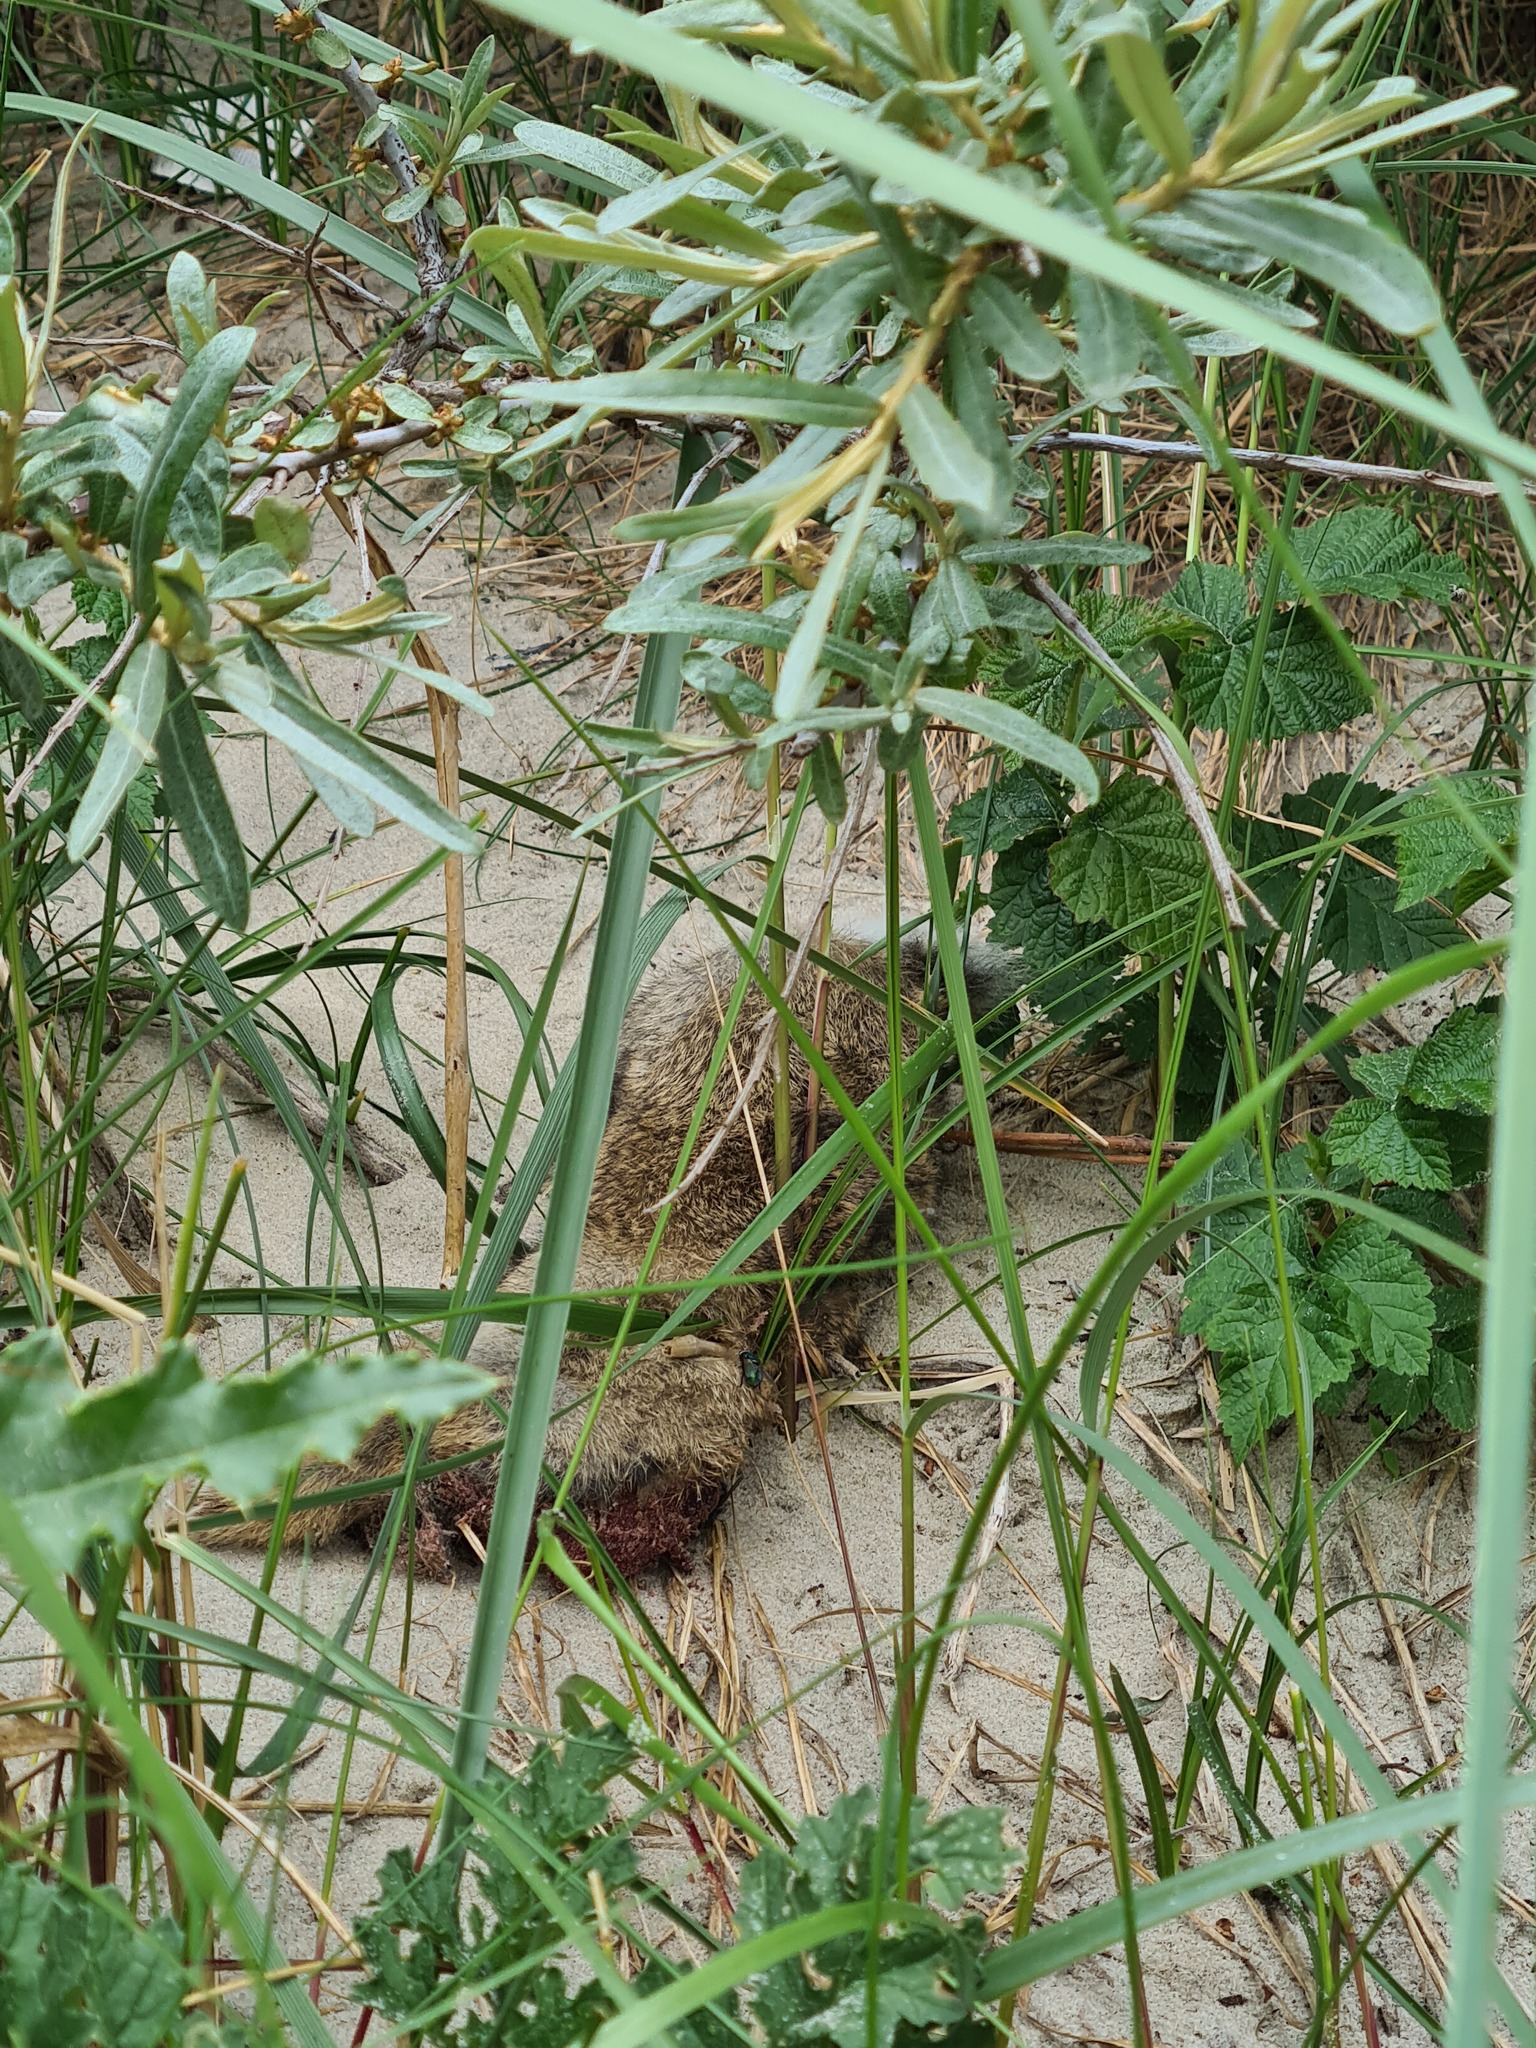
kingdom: Animalia
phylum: Chordata
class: Mammalia
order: Lagomorpha
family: Leporidae
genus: Oryctolagus
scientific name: Oryctolagus cuniculus
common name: European rabbit
